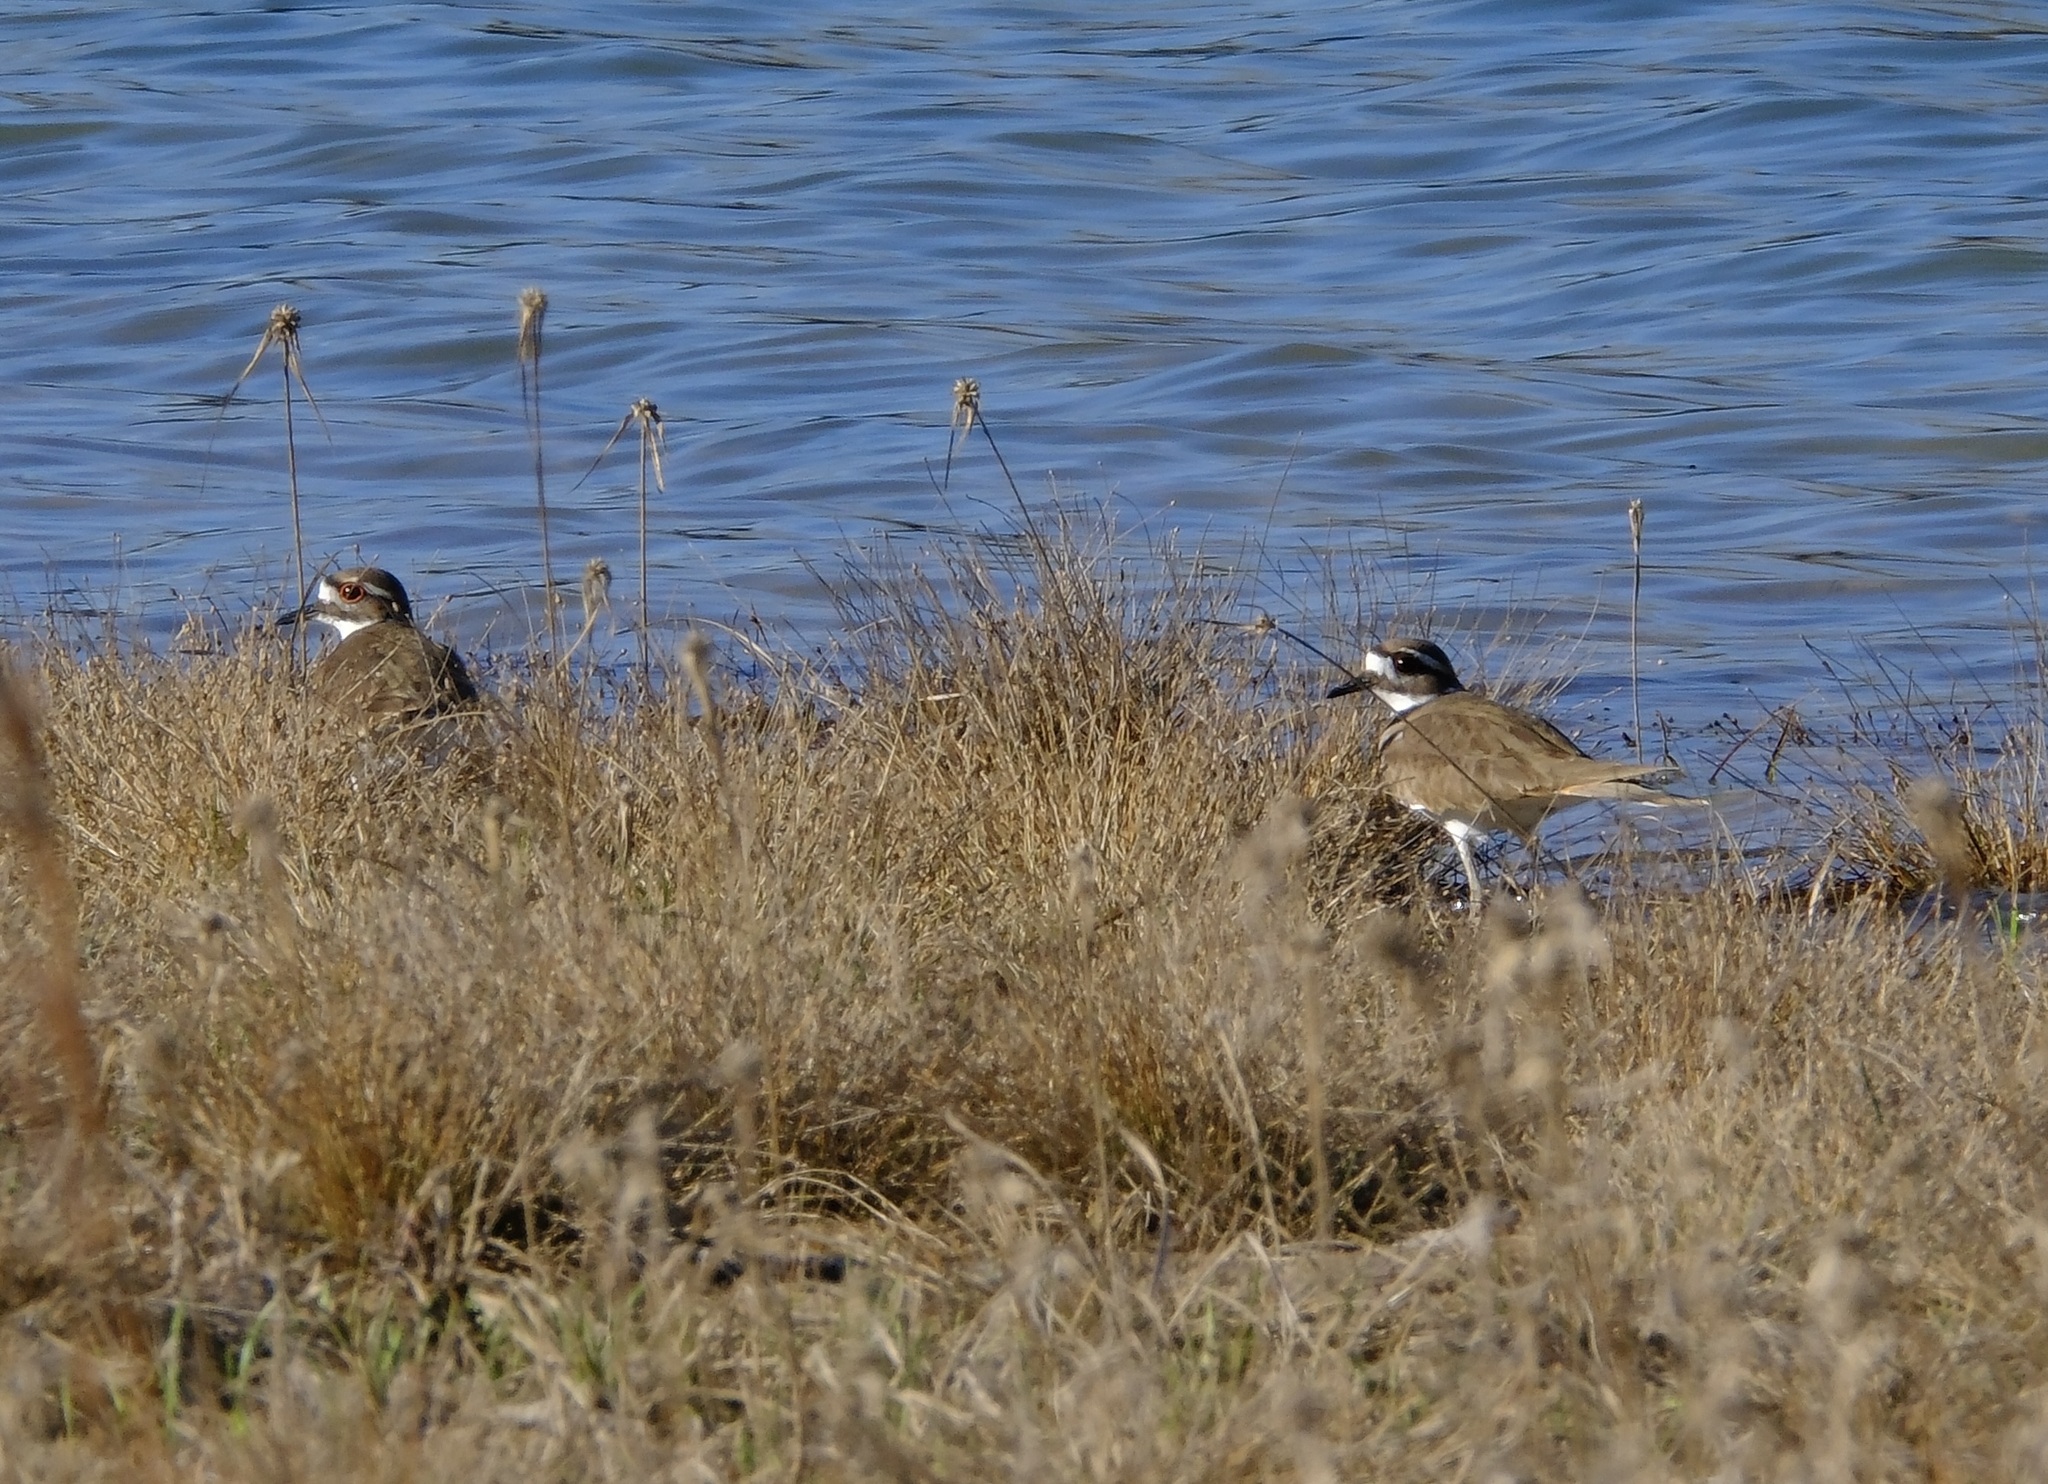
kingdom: Animalia
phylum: Chordata
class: Aves
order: Charadriiformes
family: Charadriidae
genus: Charadrius
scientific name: Charadrius vociferus
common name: Killdeer
